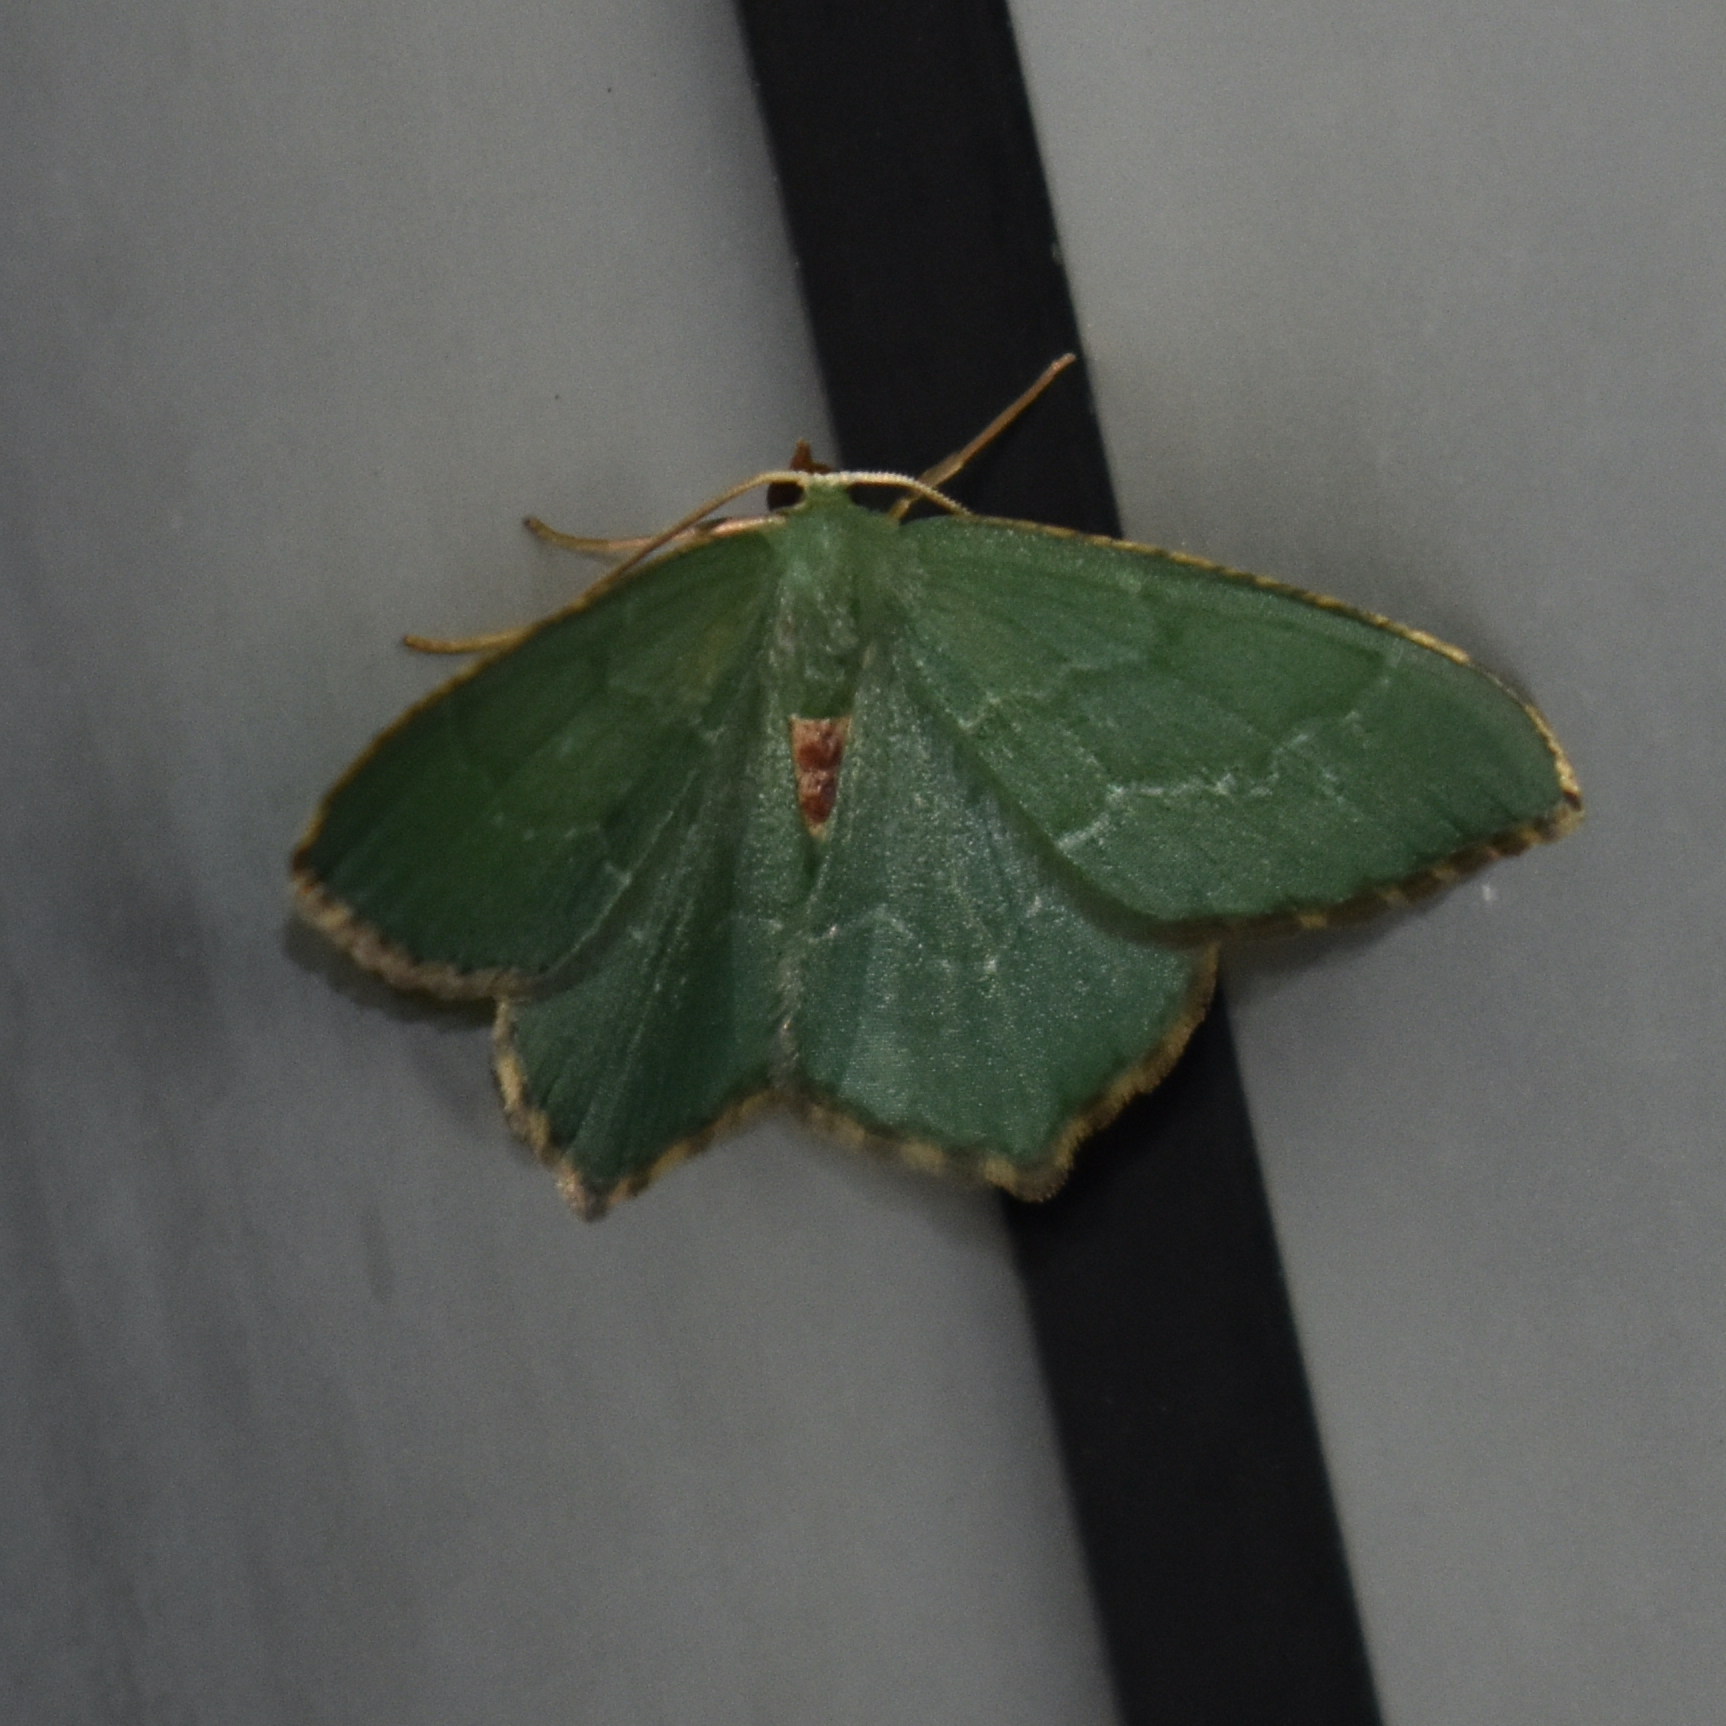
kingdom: Animalia
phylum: Arthropoda
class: Insecta
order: Lepidoptera
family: Geometridae
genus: Hemithea
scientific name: Hemithea aestivaria
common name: Common emerald
